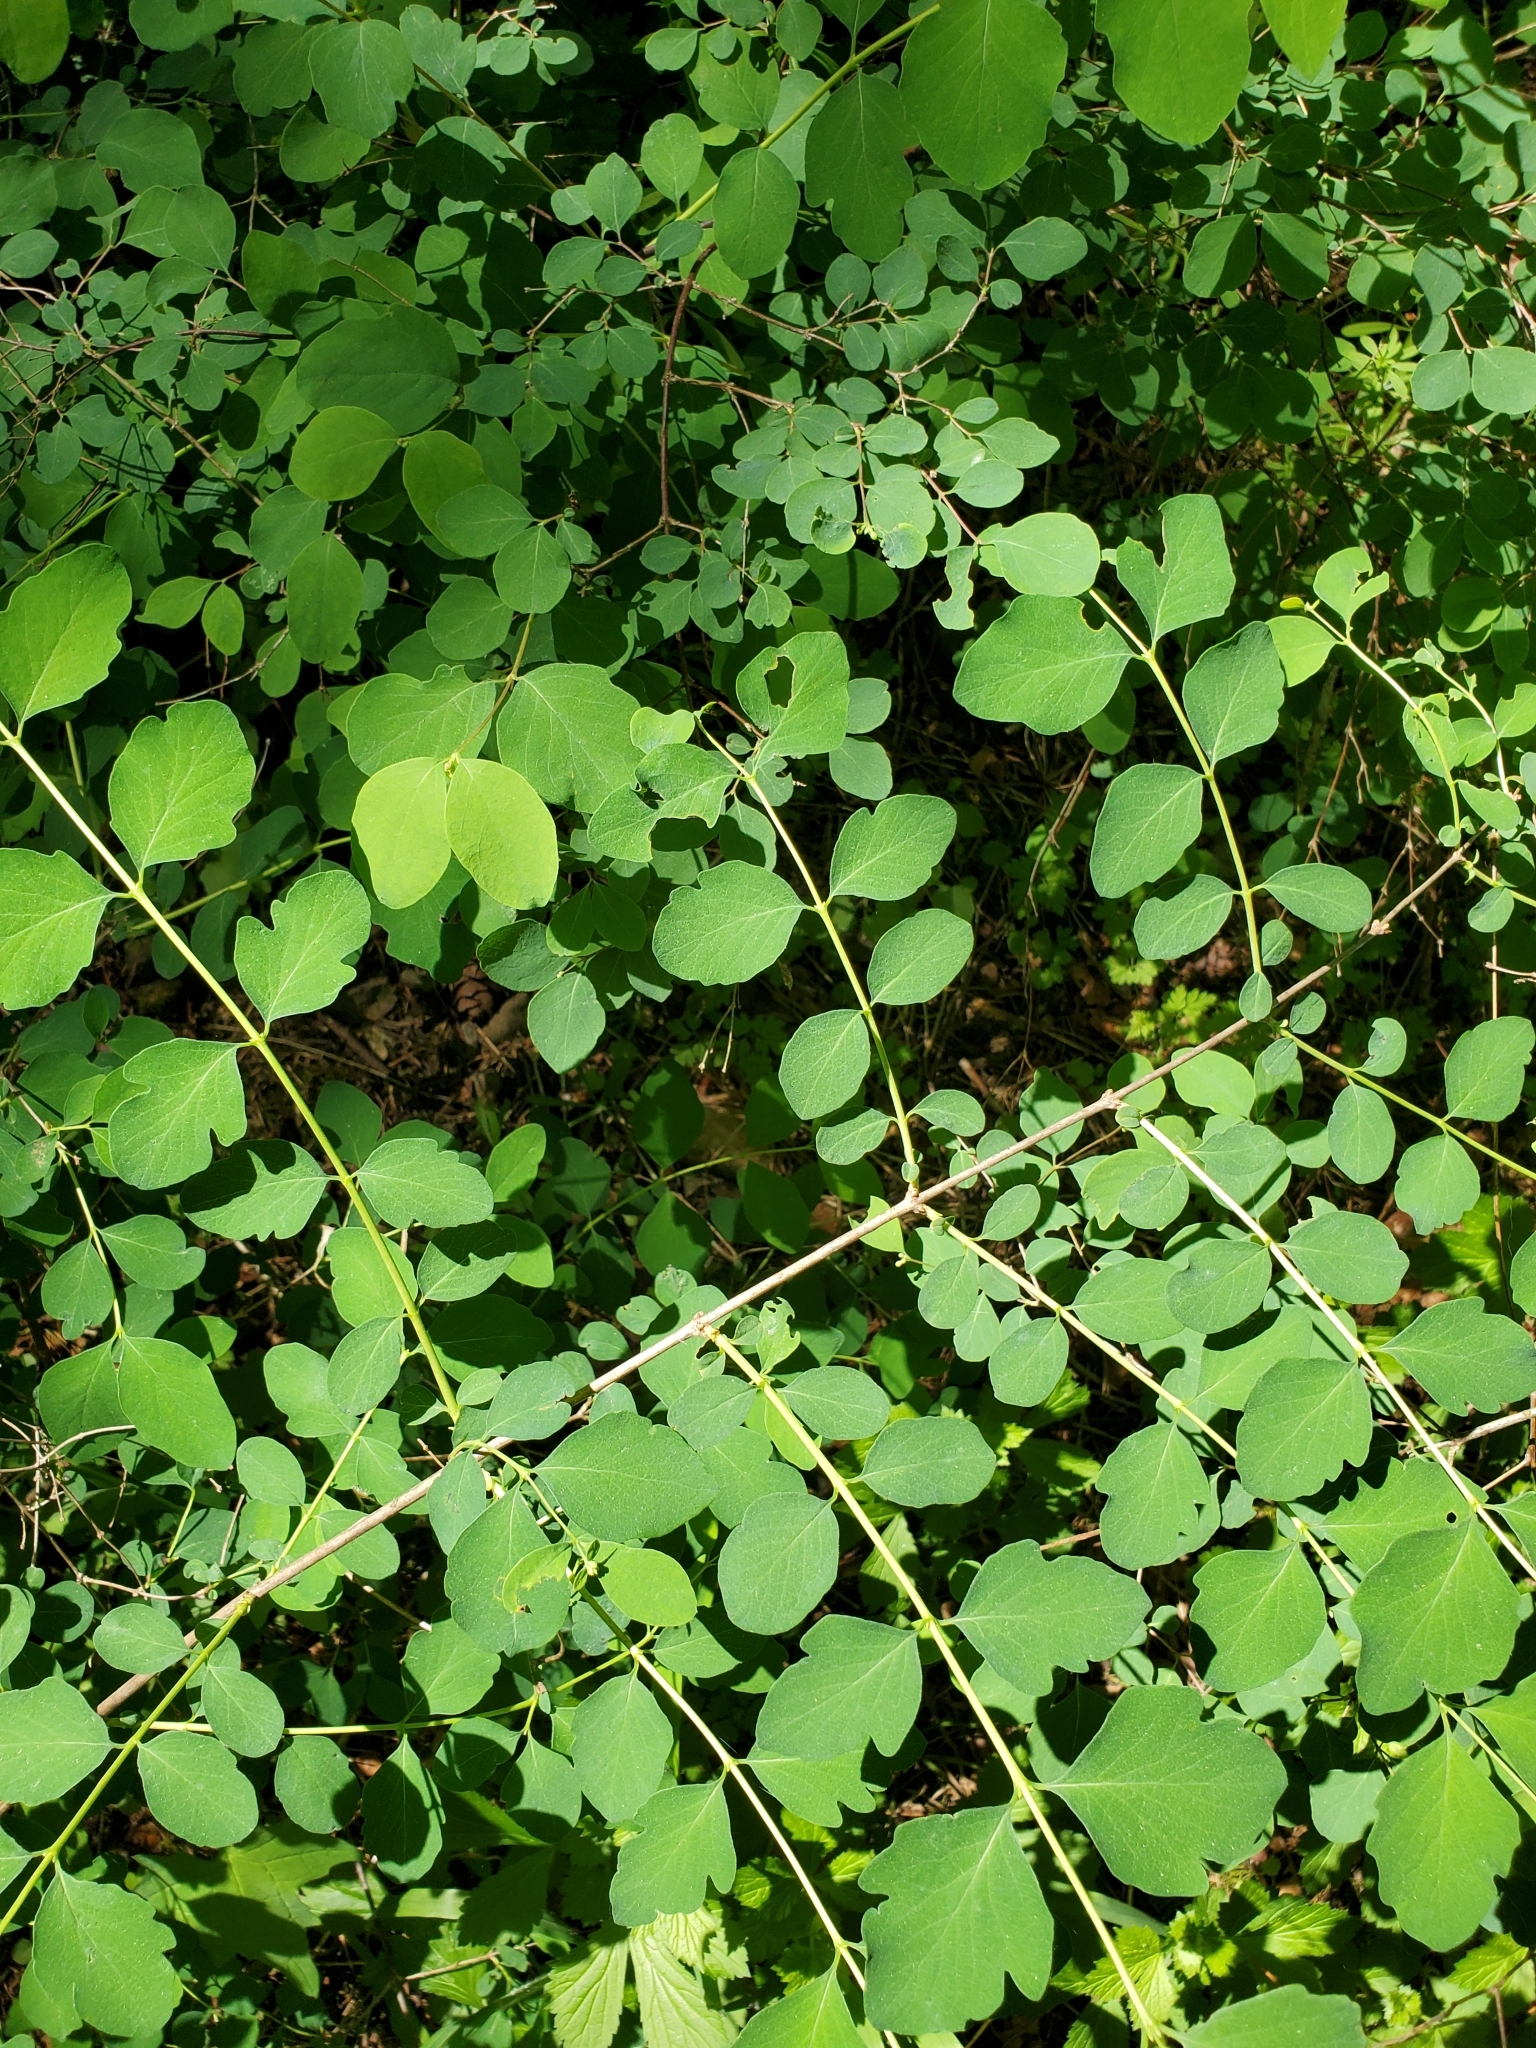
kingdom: Plantae
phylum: Tracheophyta
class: Magnoliopsida
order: Dipsacales
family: Caprifoliaceae
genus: Symphoricarpos
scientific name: Symphoricarpos albus
